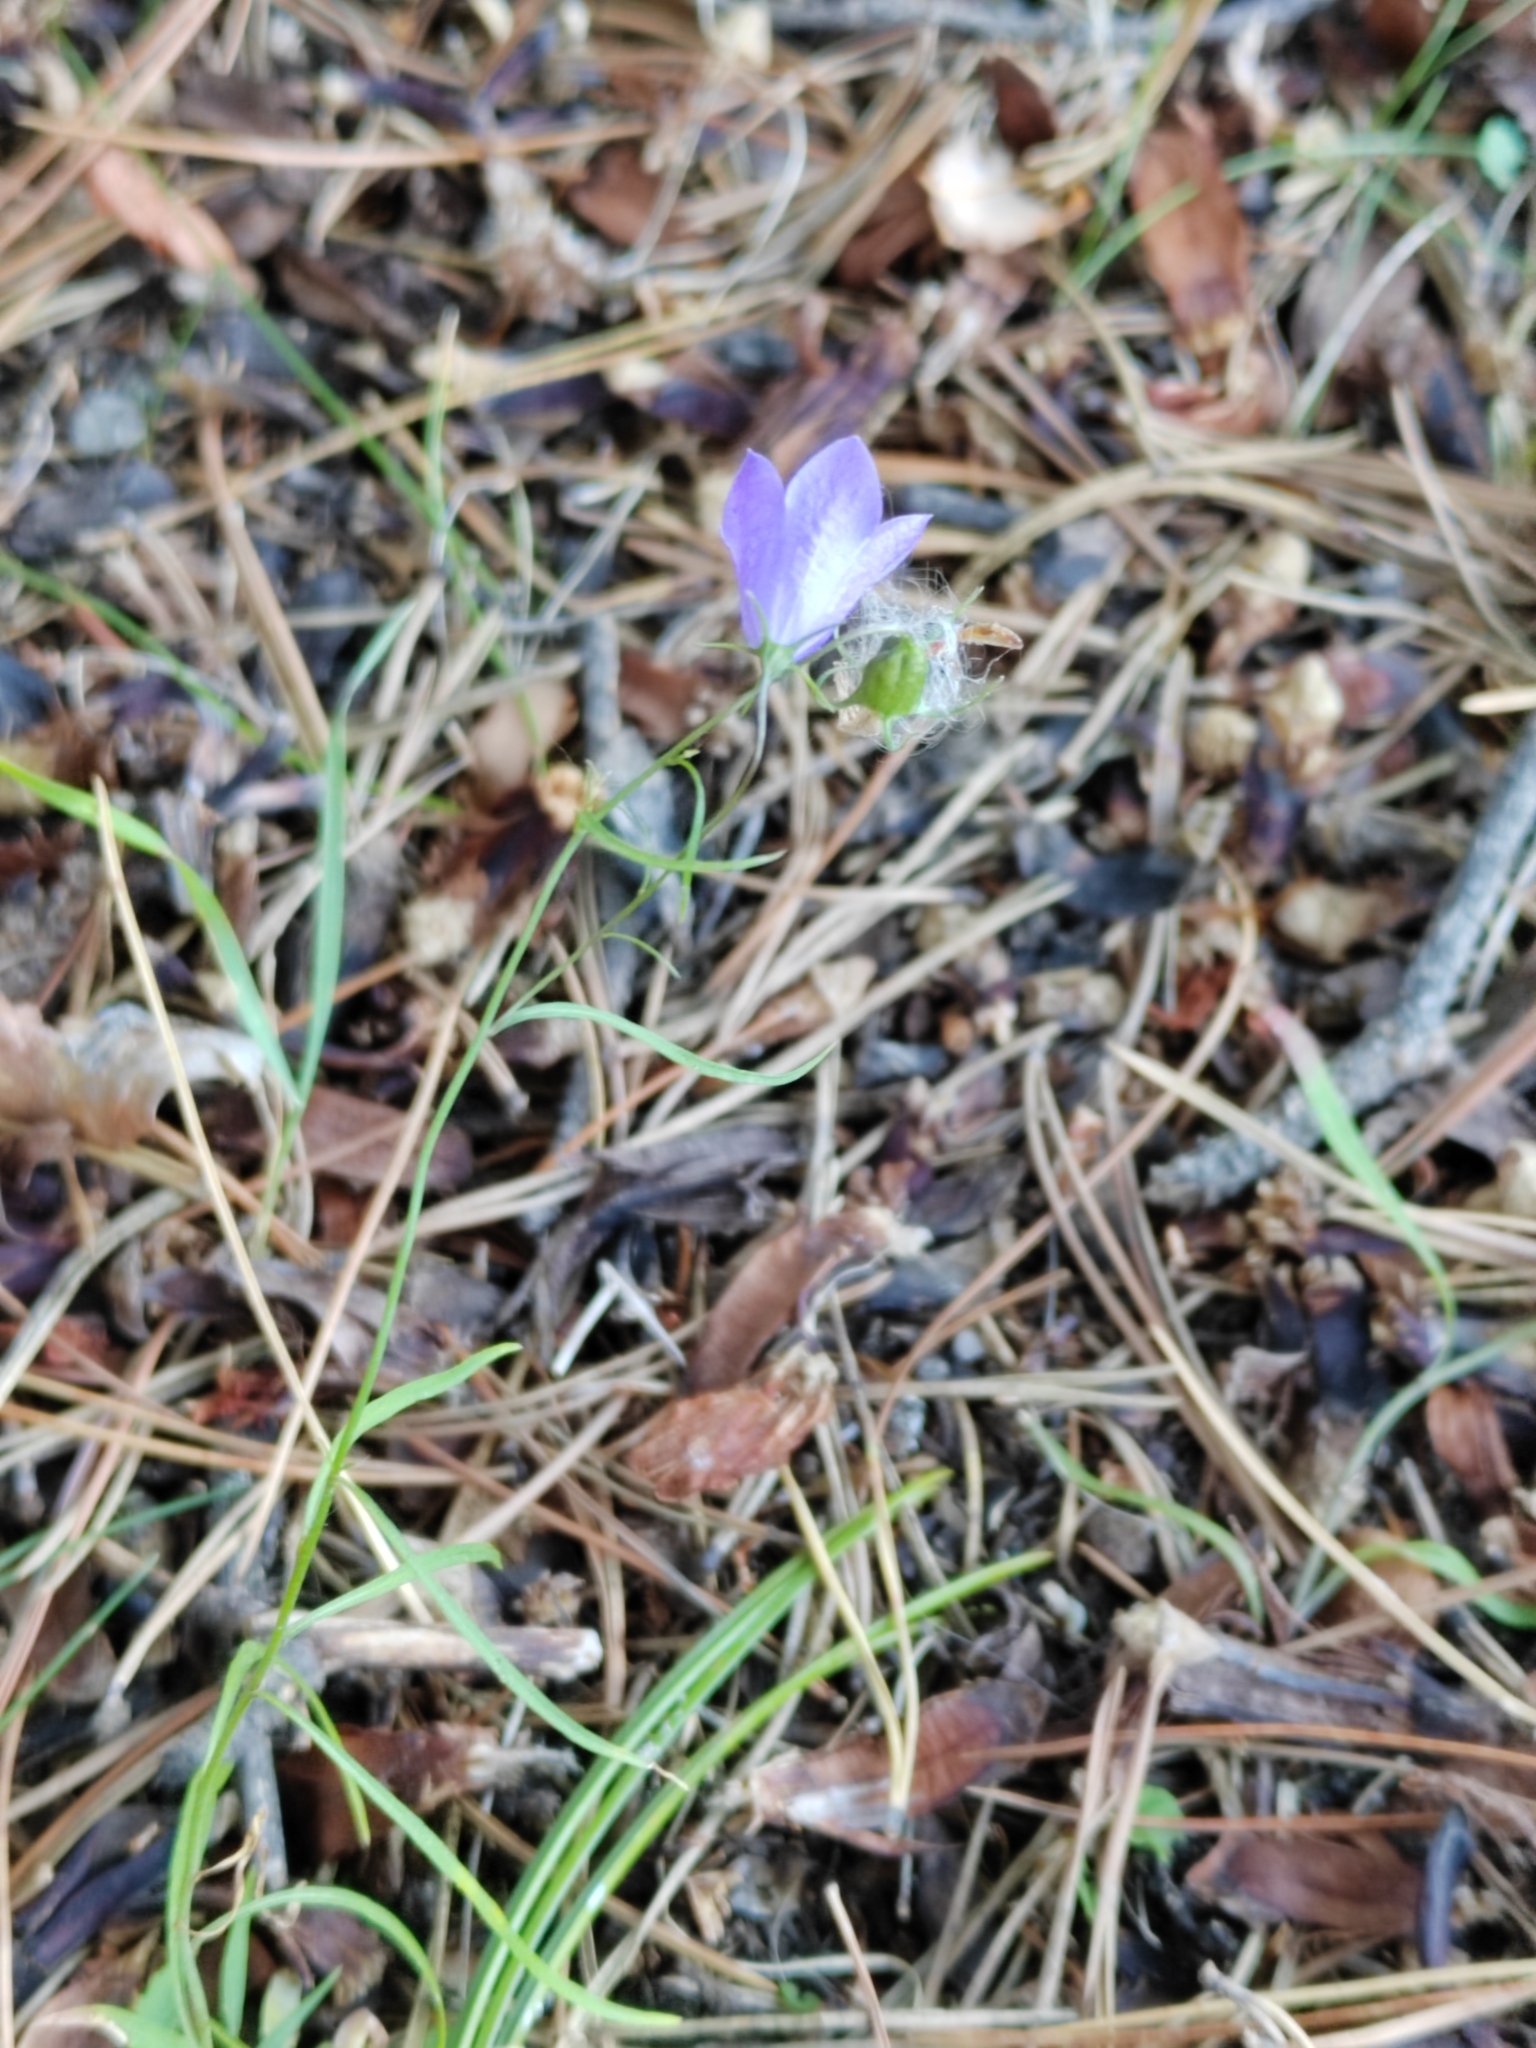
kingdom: Plantae
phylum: Tracheophyta
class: Magnoliopsida
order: Asterales
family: Campanulaceae
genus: Campanula
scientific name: Campanula rotundifolia
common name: Harebell
